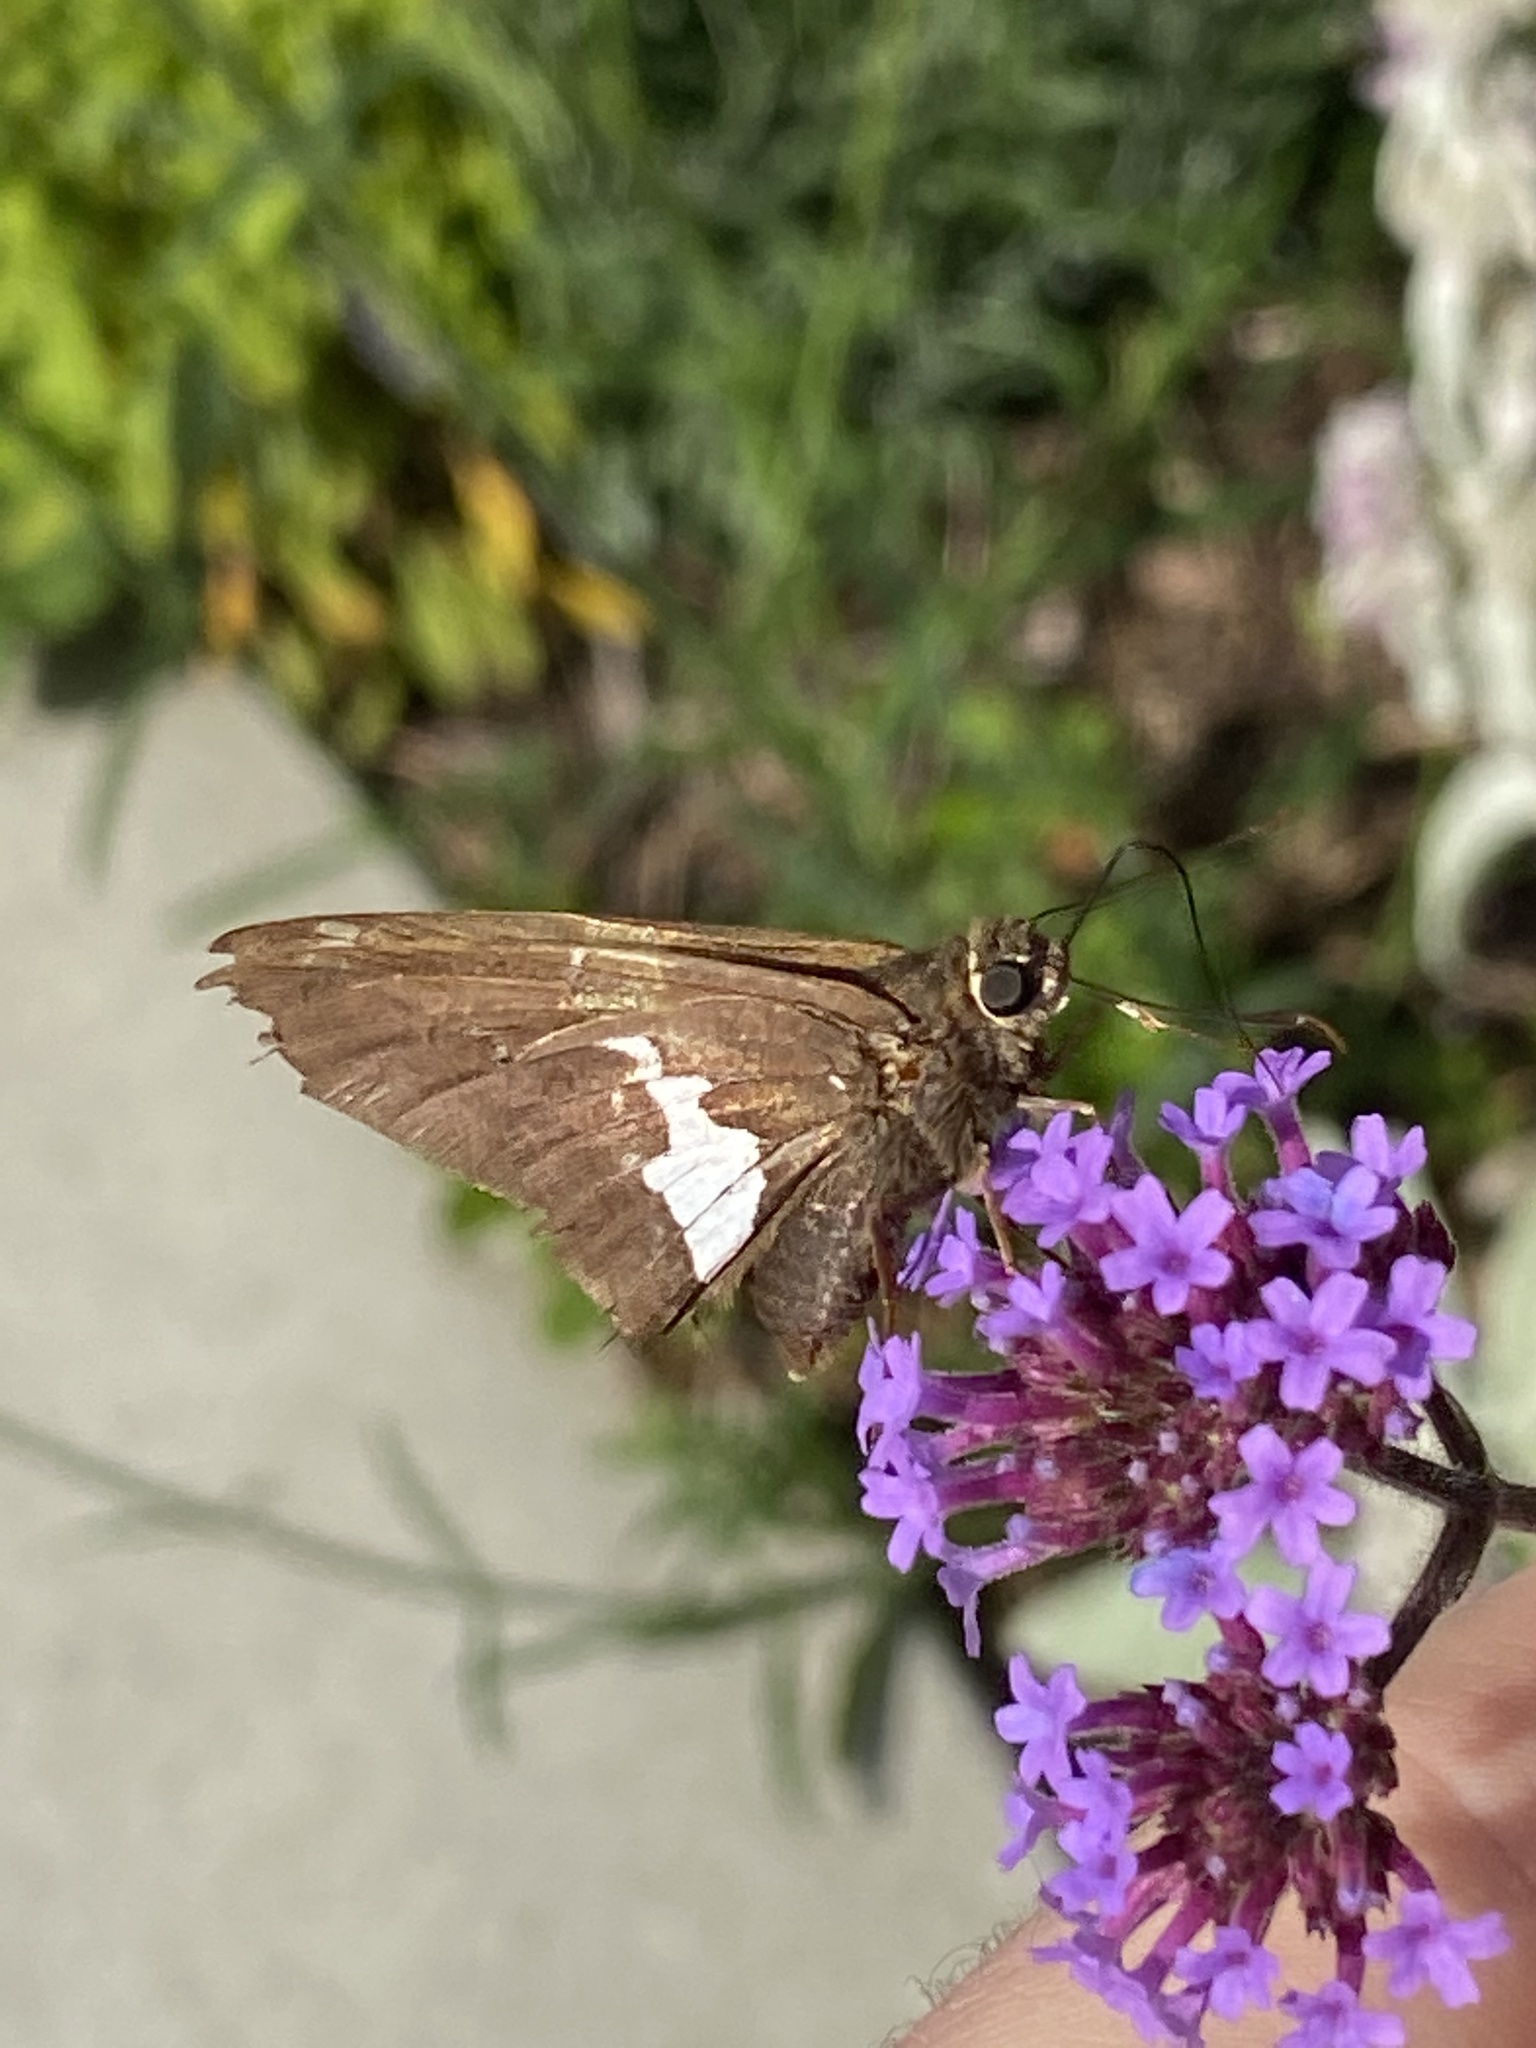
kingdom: Animalia
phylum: Arthropoda
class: Insecta
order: Lepidoptera
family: Hesperiidae
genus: Epargyreus
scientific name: Epargyreus clarus
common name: Silver-spotted skipper
